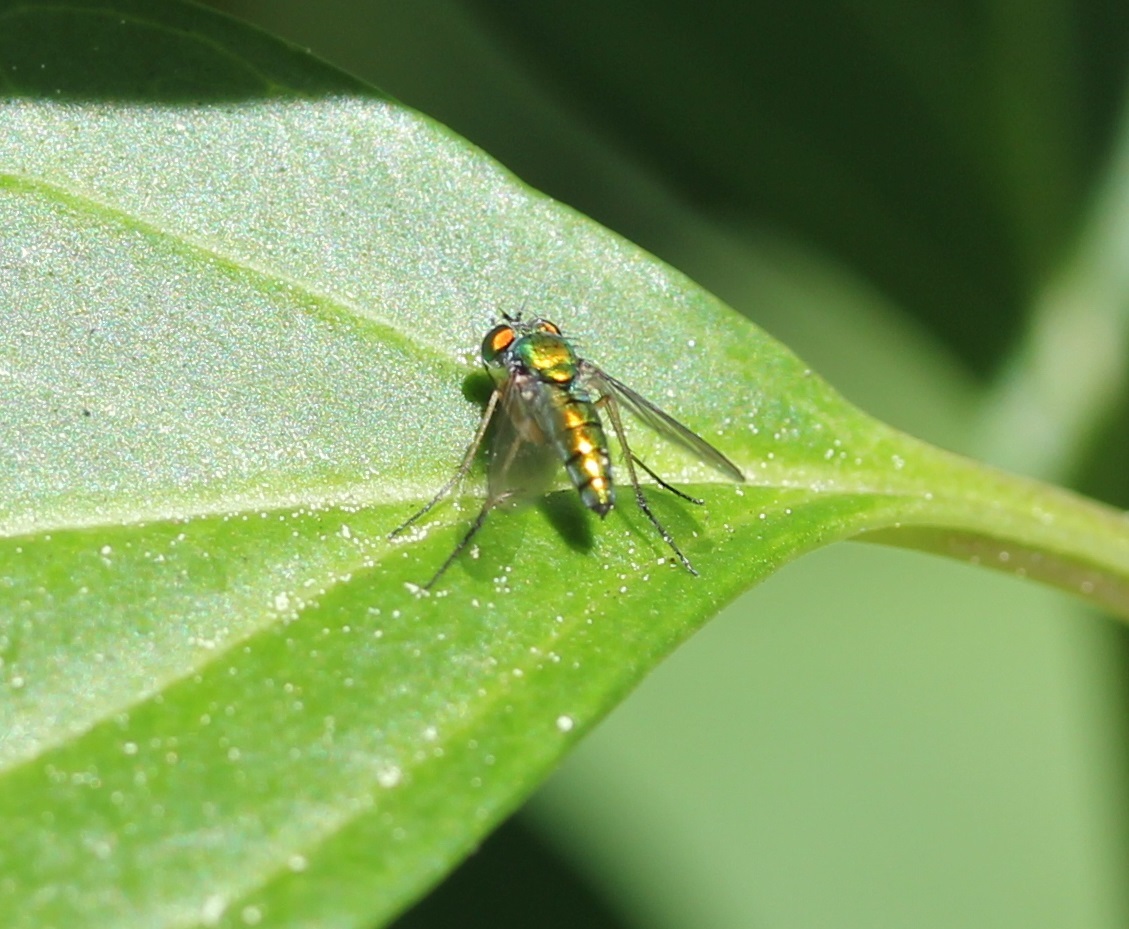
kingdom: Animalia
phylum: Arthropoda
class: Insecta
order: Diptera
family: Dolichopodidae
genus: Condylostylus
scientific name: Condylostylus
